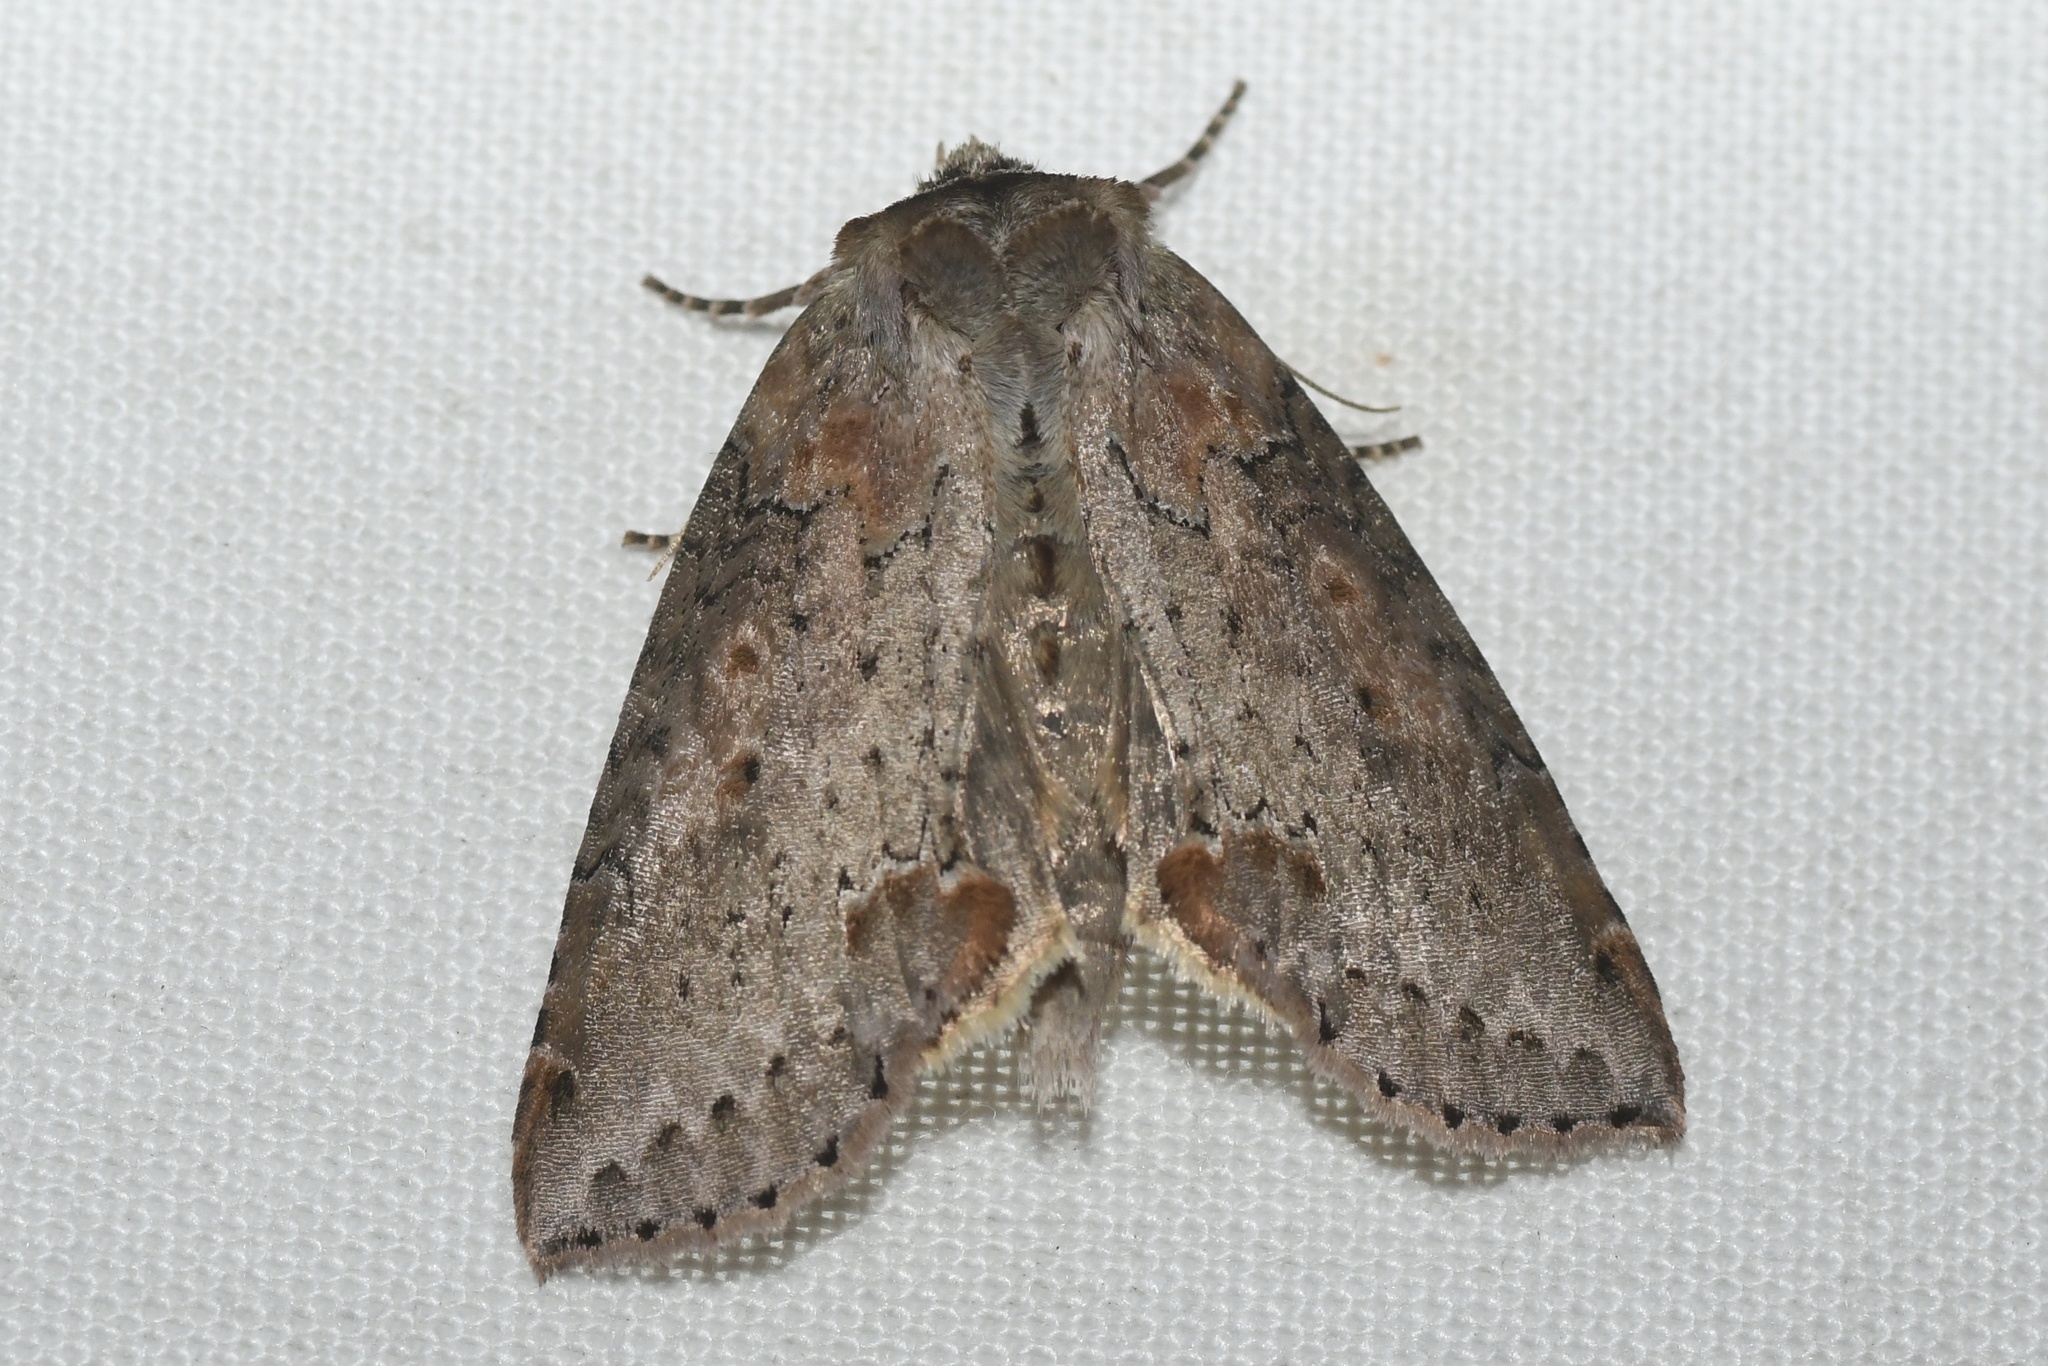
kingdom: Animalia
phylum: Arthropoda
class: Insecta
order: Lepidoptera
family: Drepanidae
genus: Pseudothyatira
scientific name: Pseudothyatira cymatophoroides
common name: Tufted thyatirid moth
